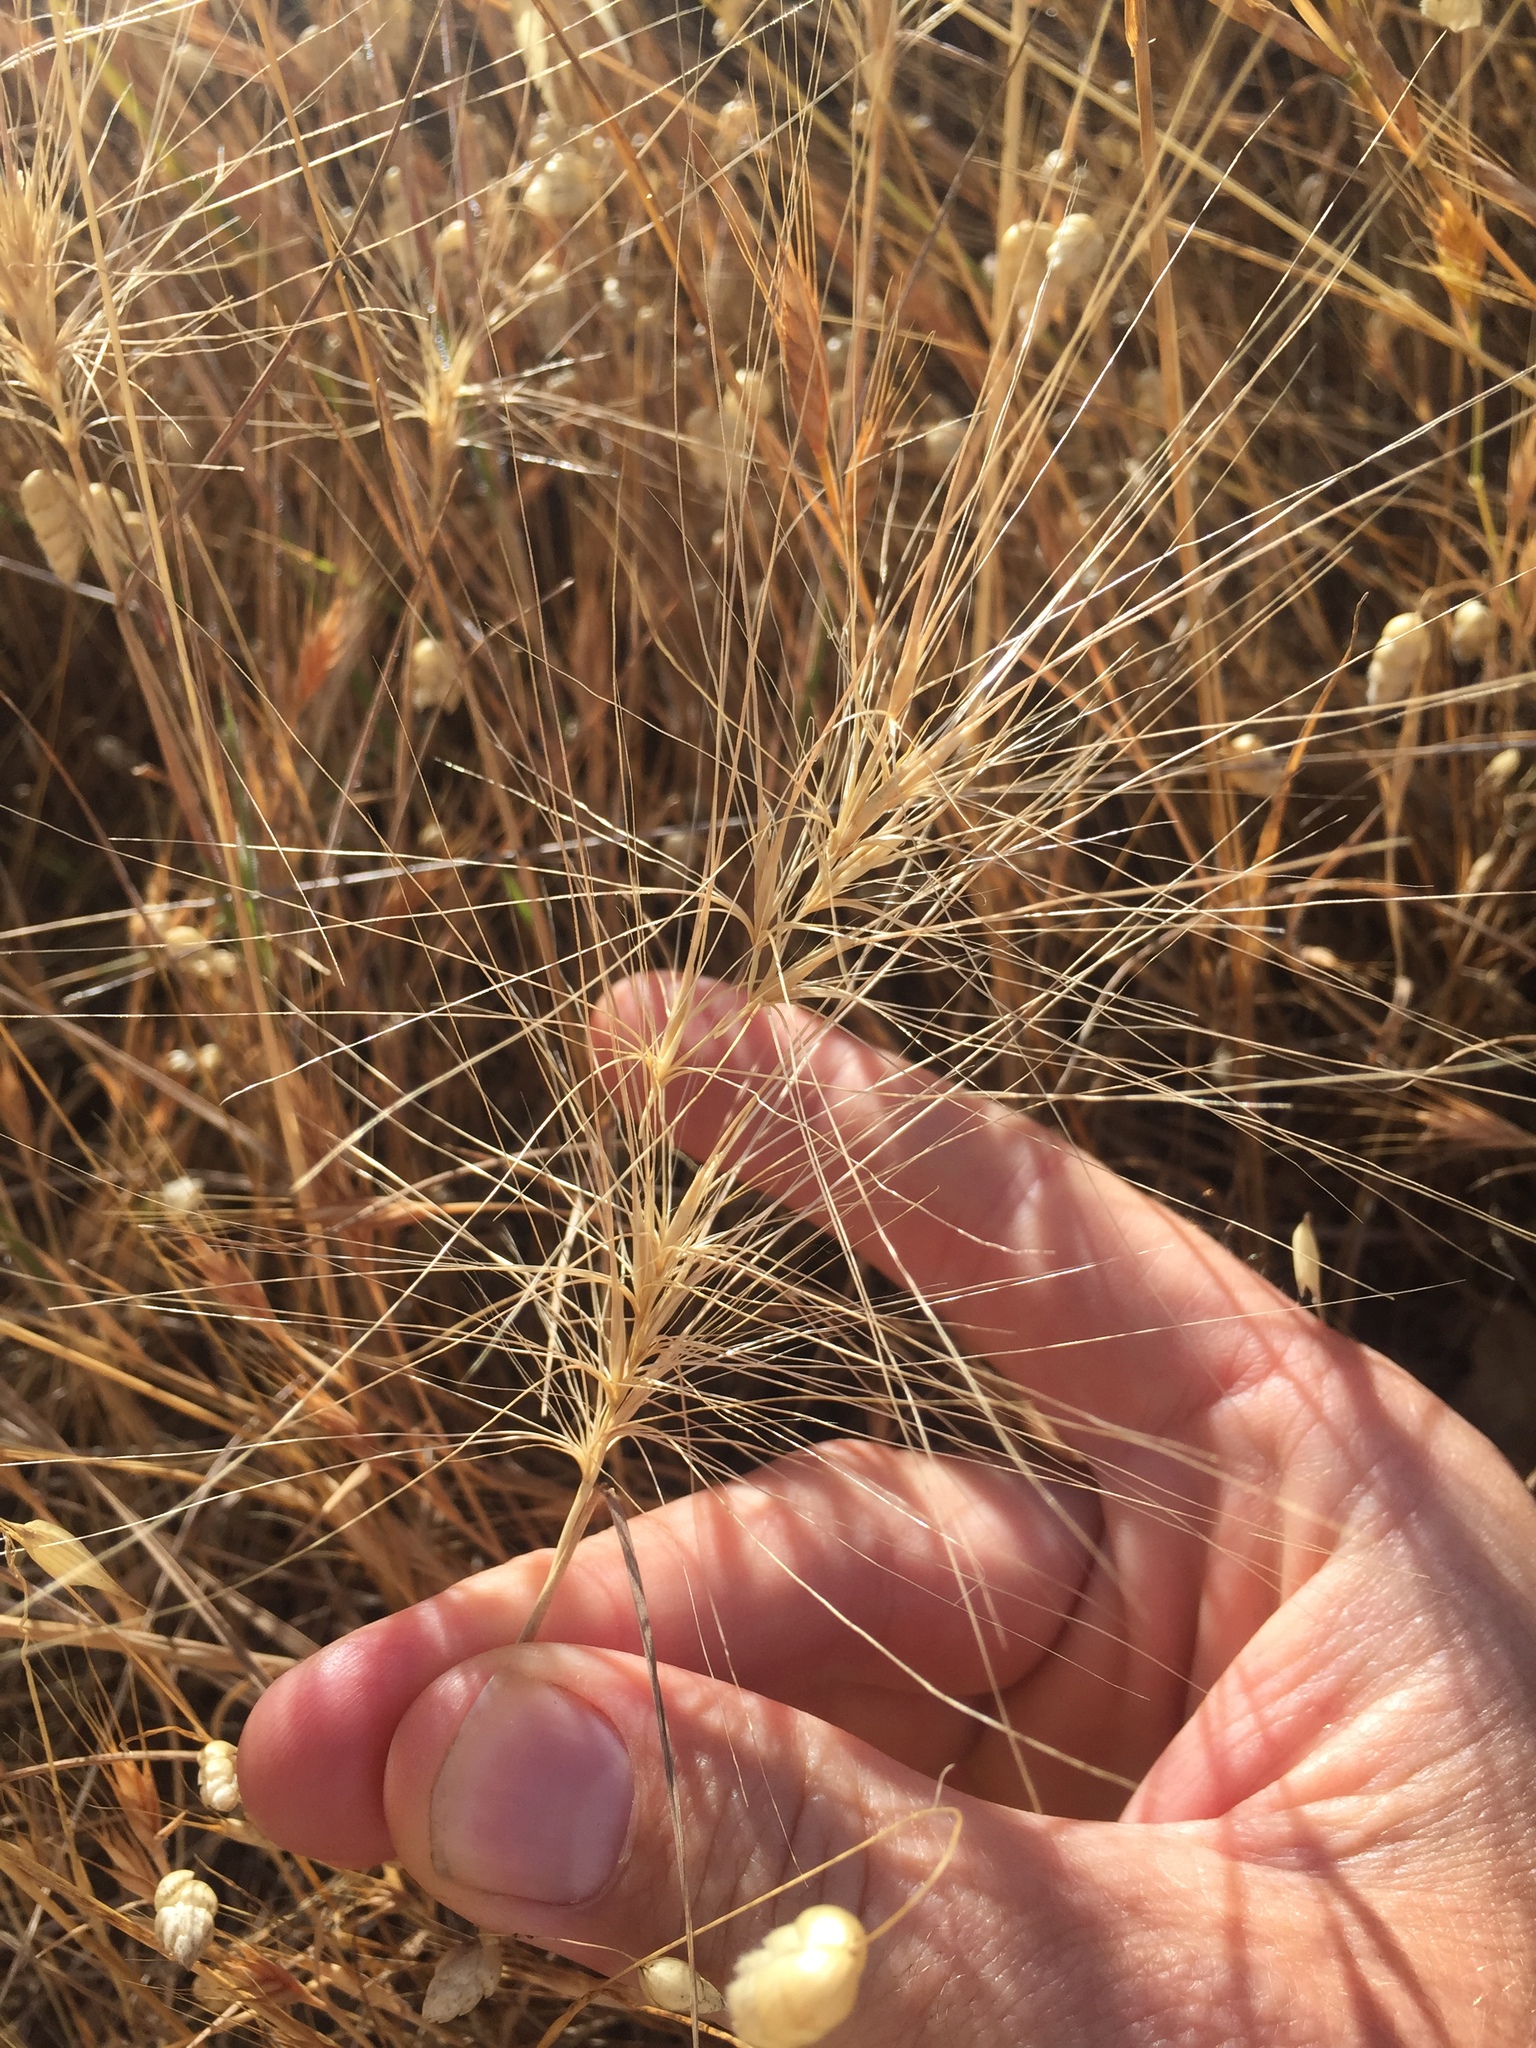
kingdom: Plantae
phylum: Tracheophyta
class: Liliopsida
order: Poales
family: Poaceae
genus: Elymus
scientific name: Elymus multisetus
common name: Big squirreltail
